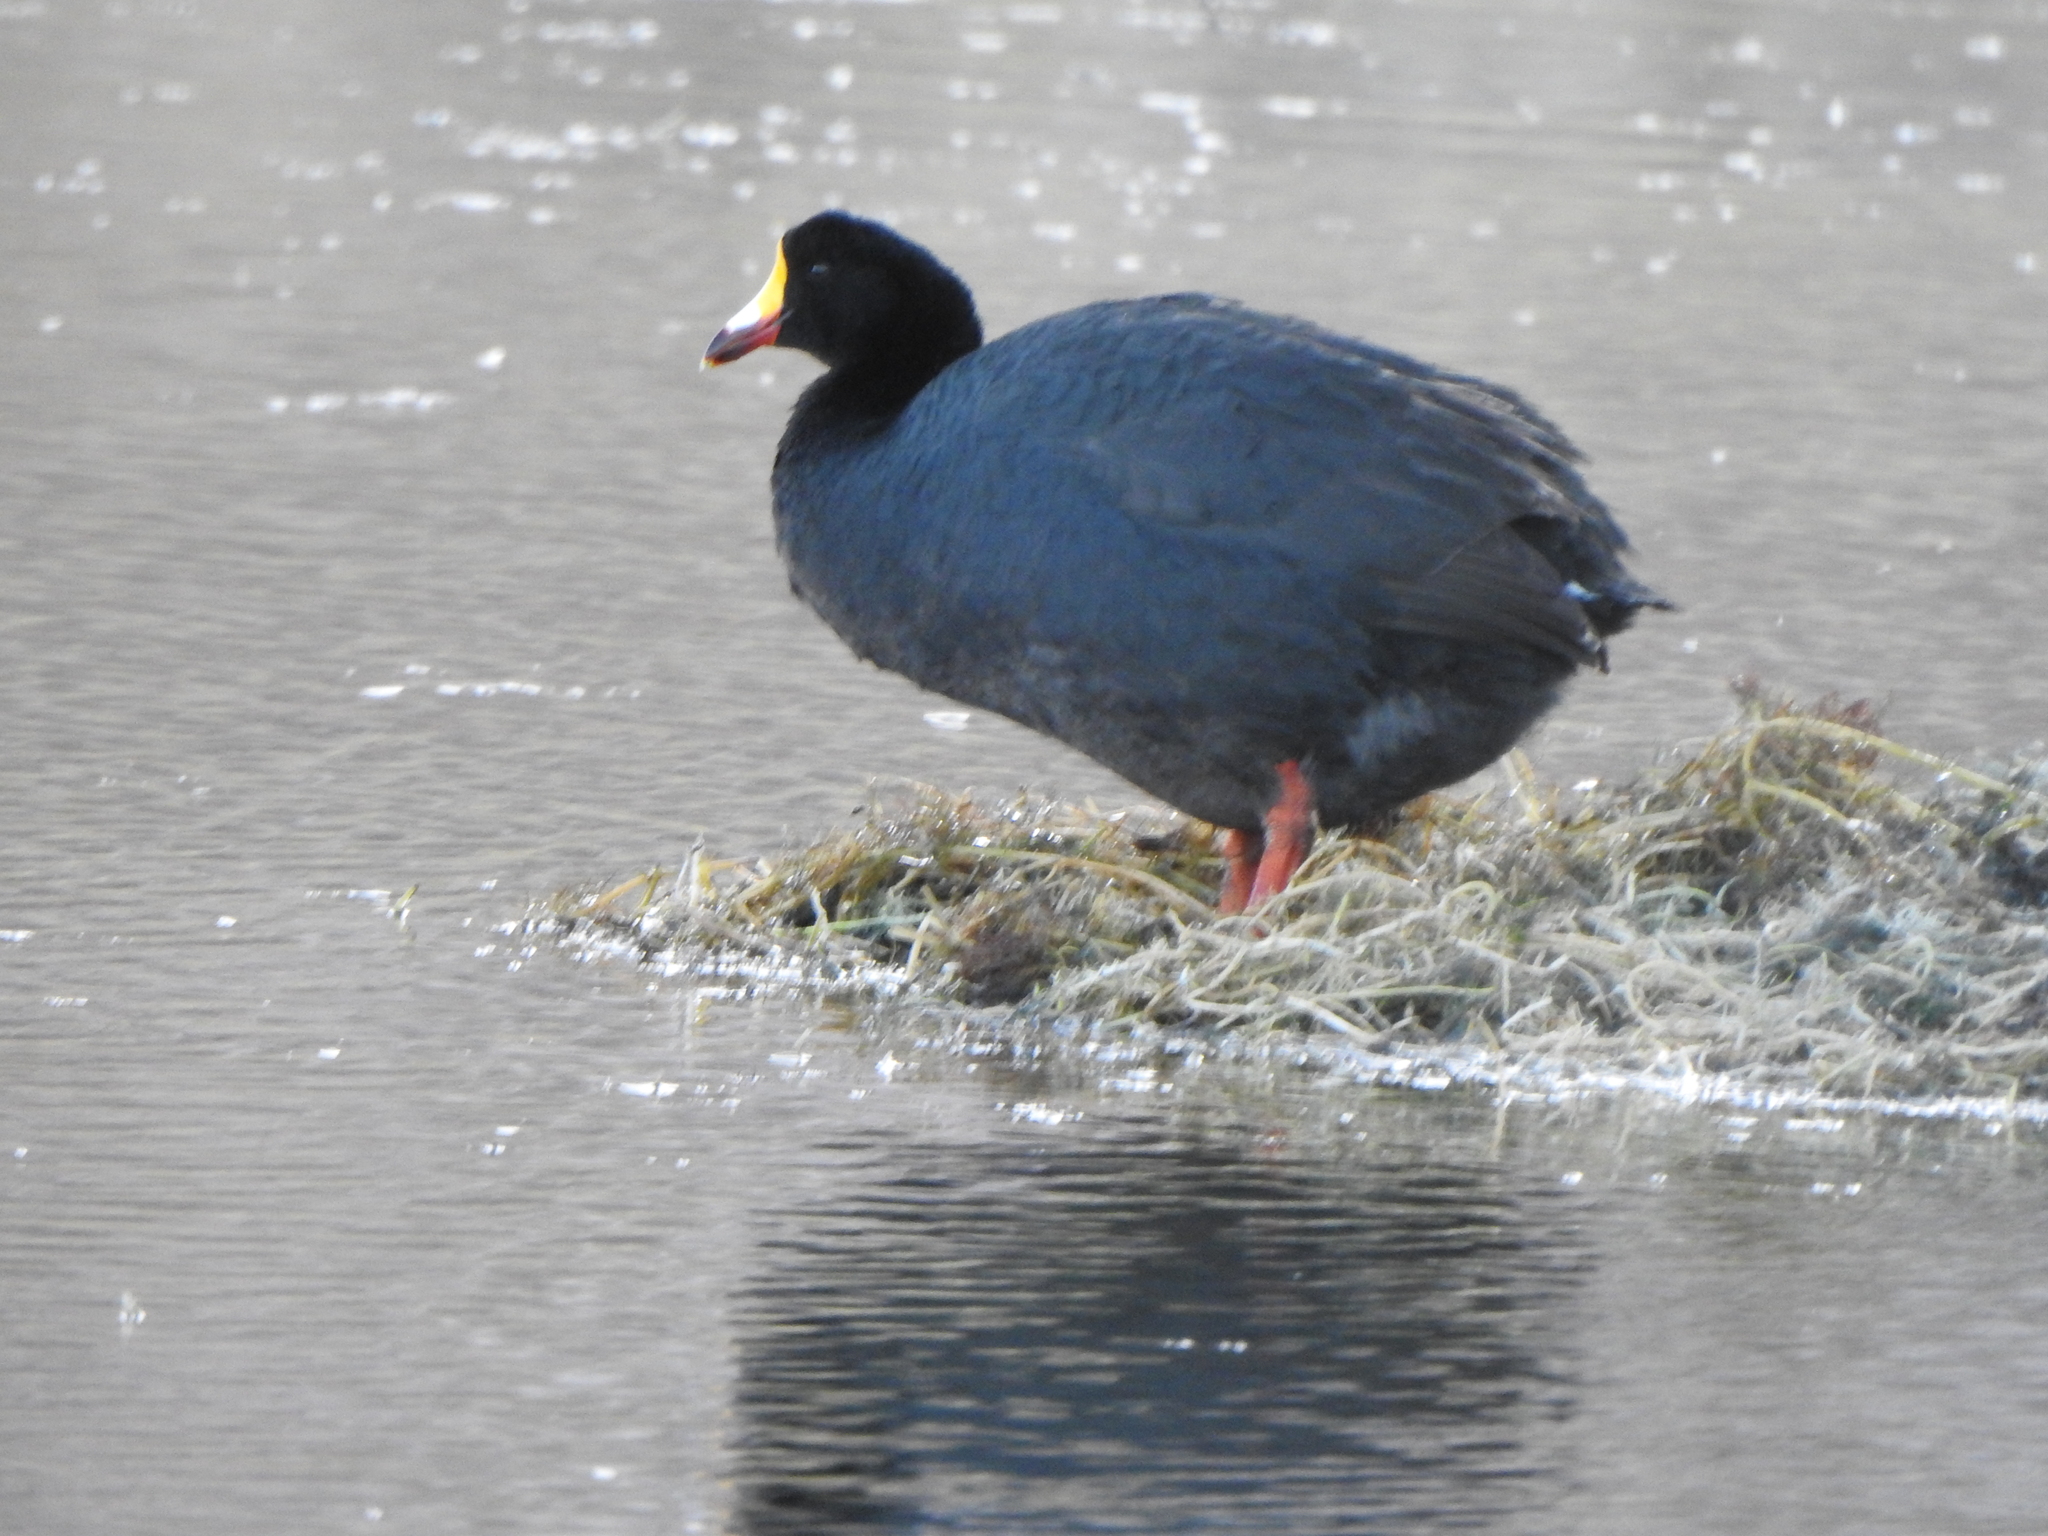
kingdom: Animalia
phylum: Chordata
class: Aves
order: Gruiformes
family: Rallidae
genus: Fulica
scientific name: Fulica gigantea
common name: Giant coot
